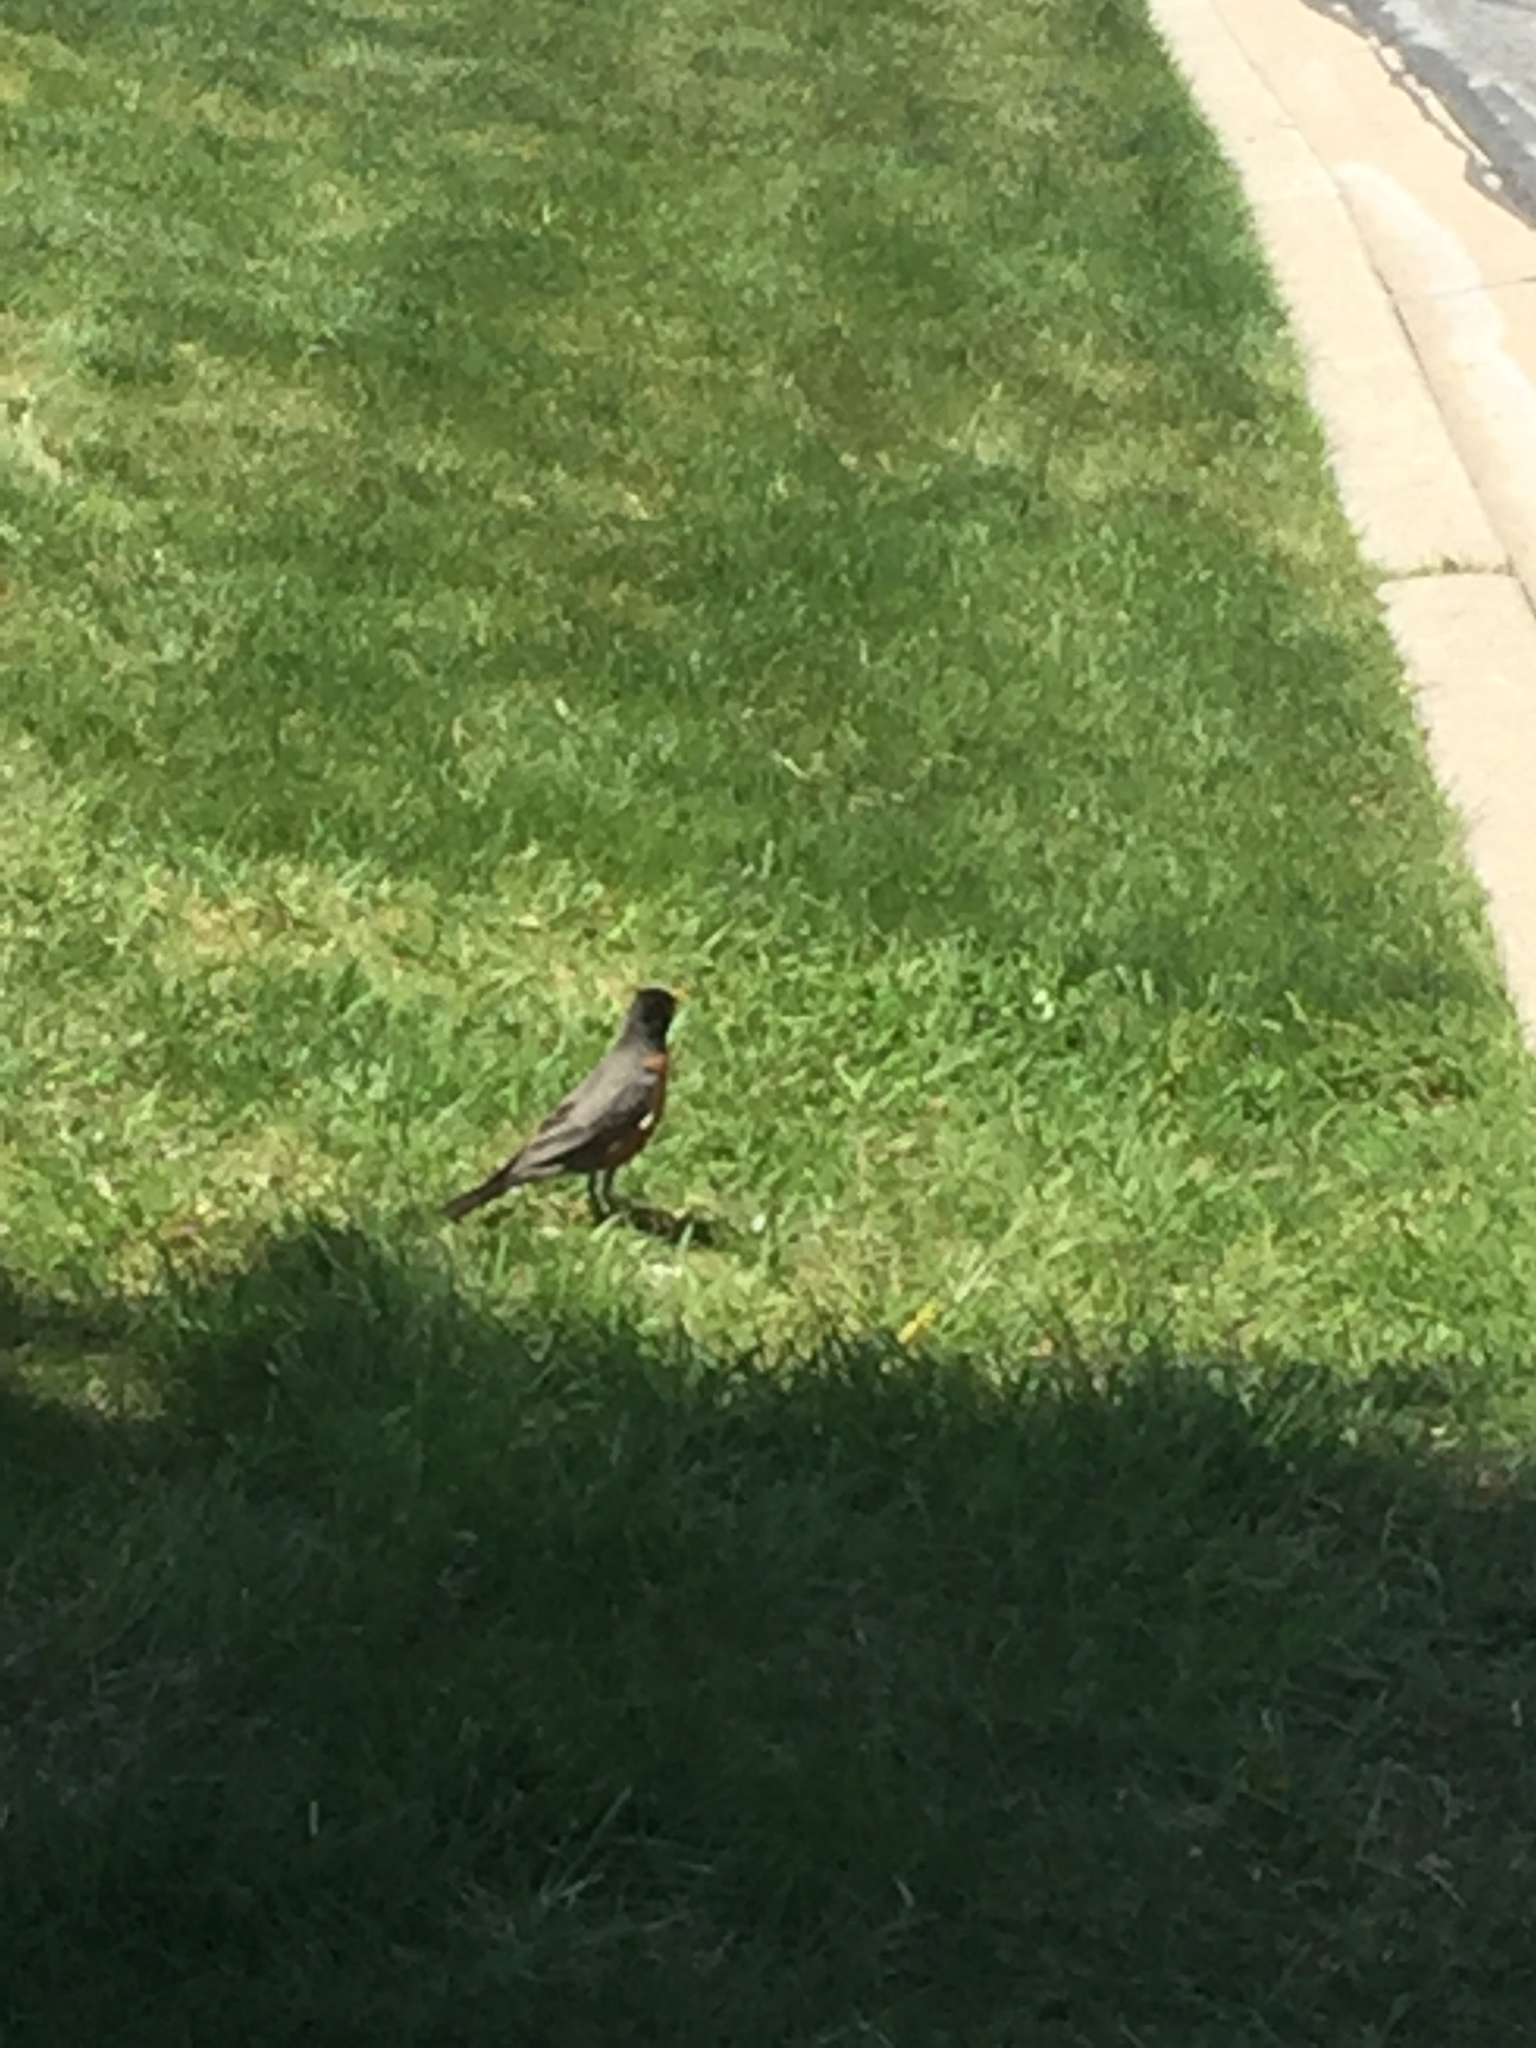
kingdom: Animalia
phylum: Chordata
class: Aves
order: Passeriformes
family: Turdidae
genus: Turdus
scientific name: Turdus migratorius
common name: American robin
